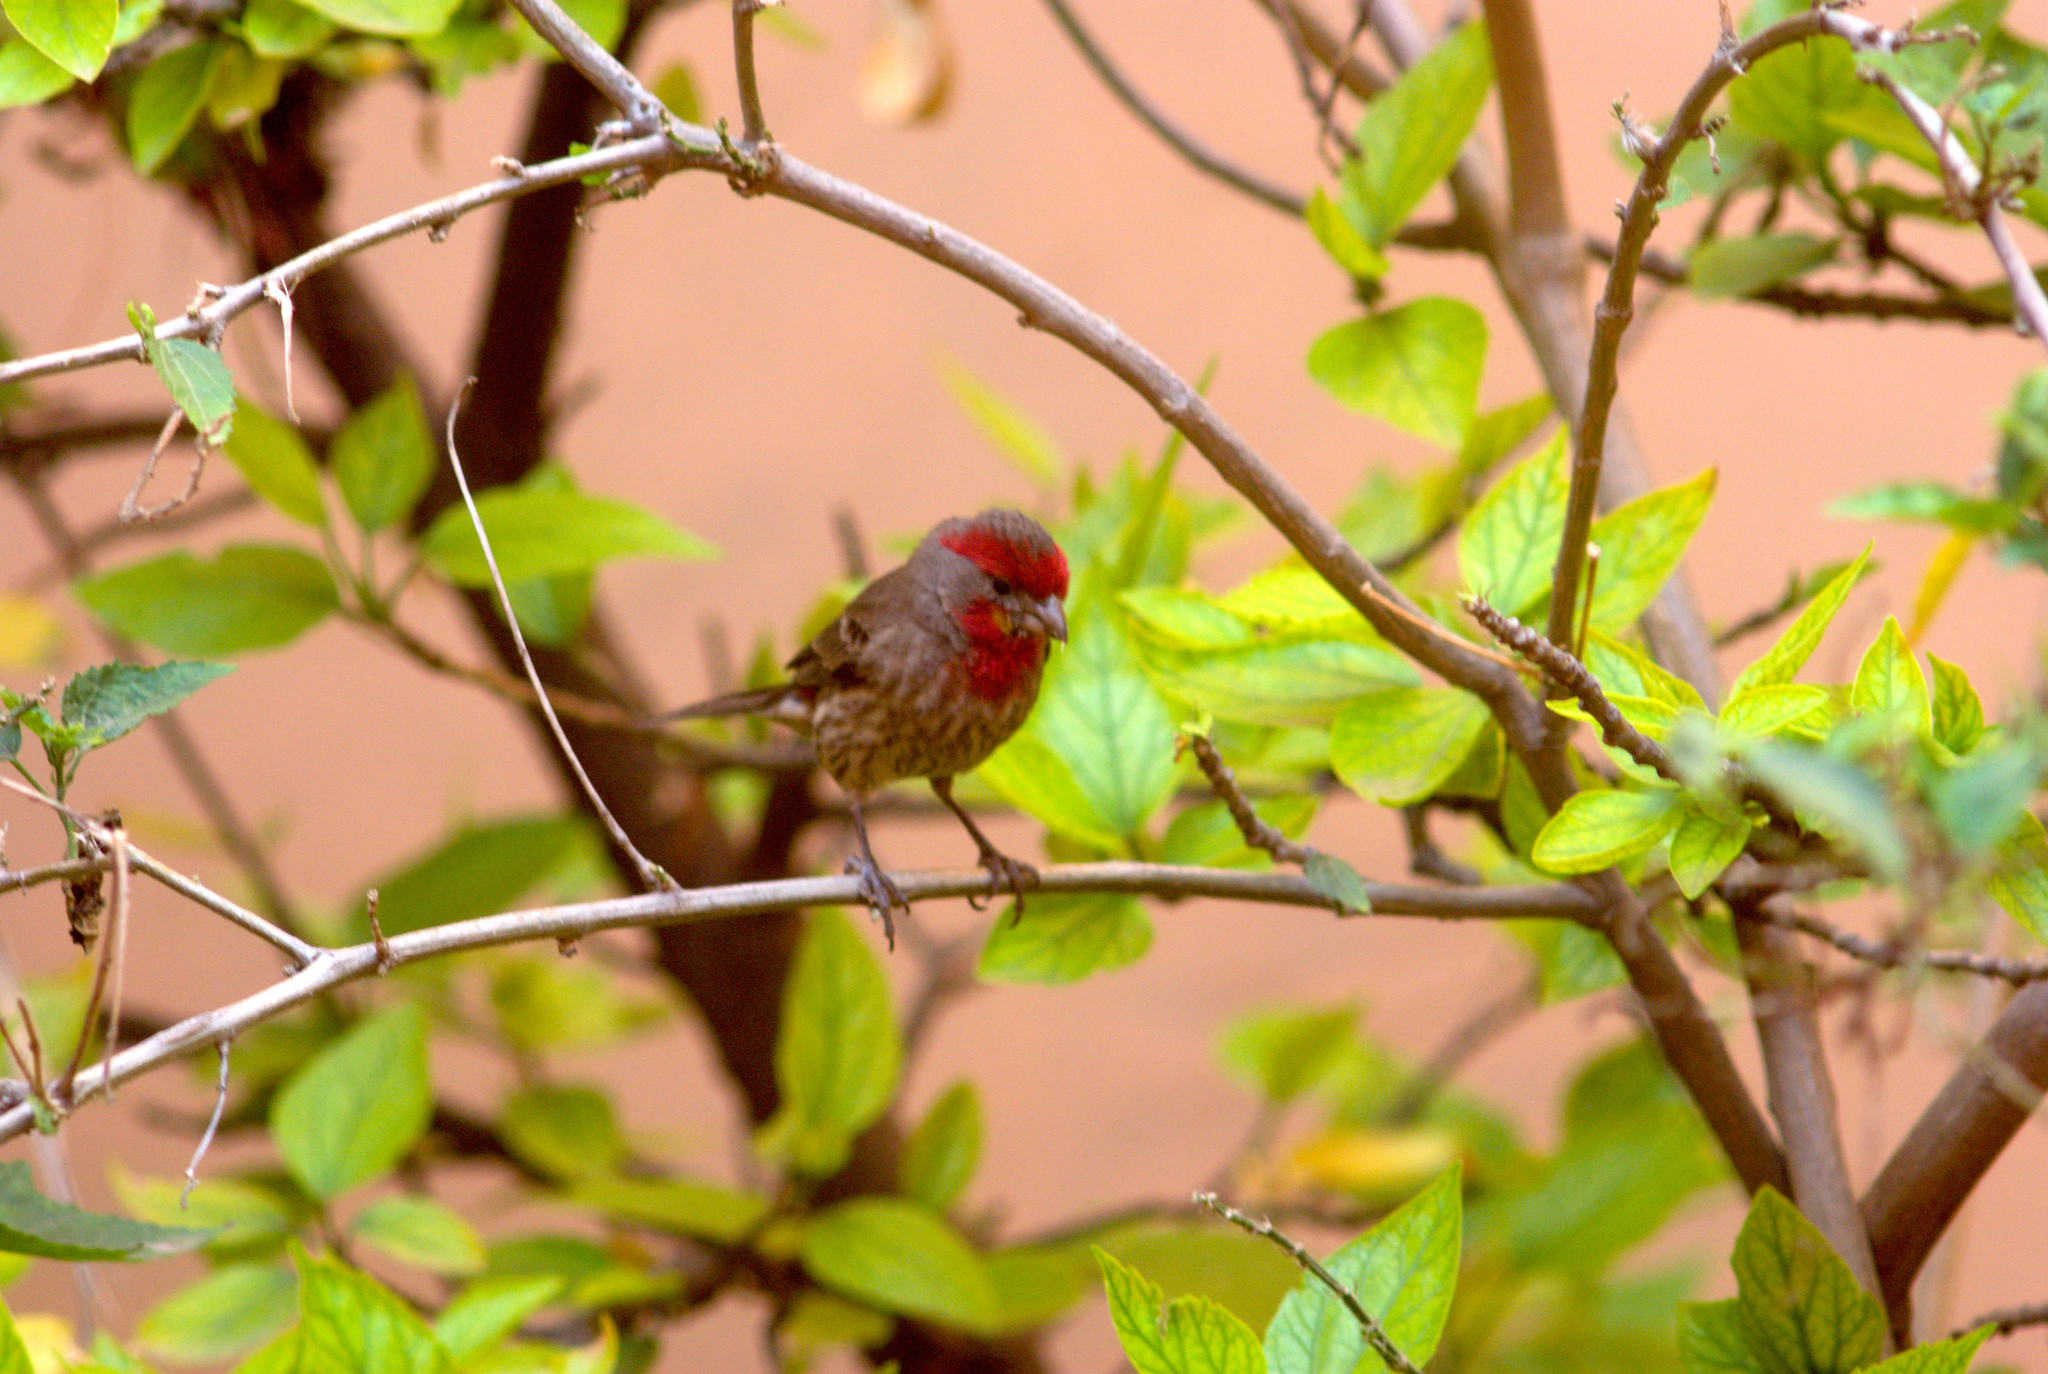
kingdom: Animalia
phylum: Chordata
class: Aves
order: Passeriformes
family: Fringillidae
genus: Haemorhous
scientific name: Haemorhous mexicanus
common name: House finch
